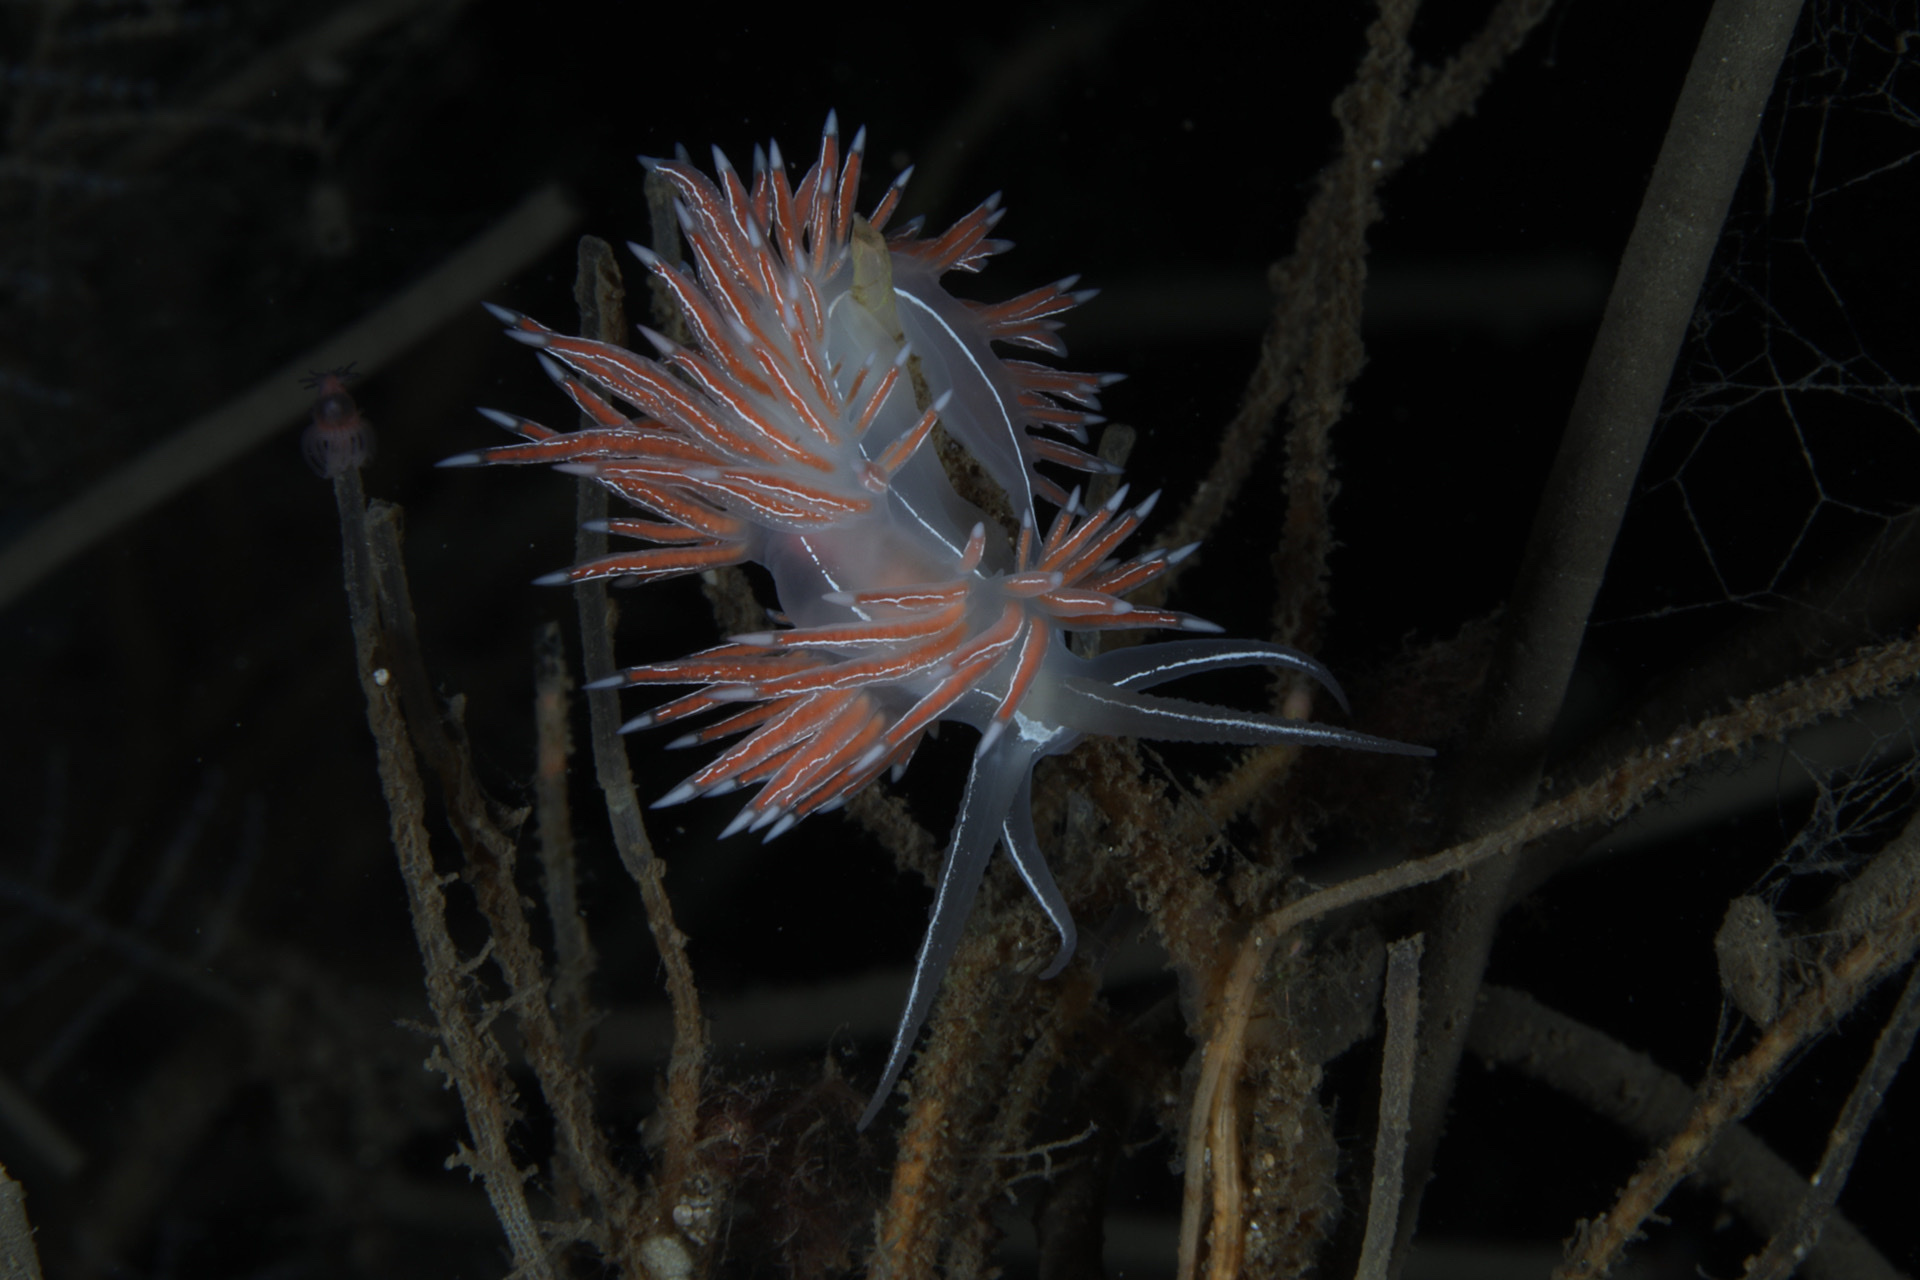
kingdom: Animalia
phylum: Mollusca
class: Gastropoda
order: Nudibranchia
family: Coryphellidae
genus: Coryphella
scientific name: Coryphella chriskaugei
